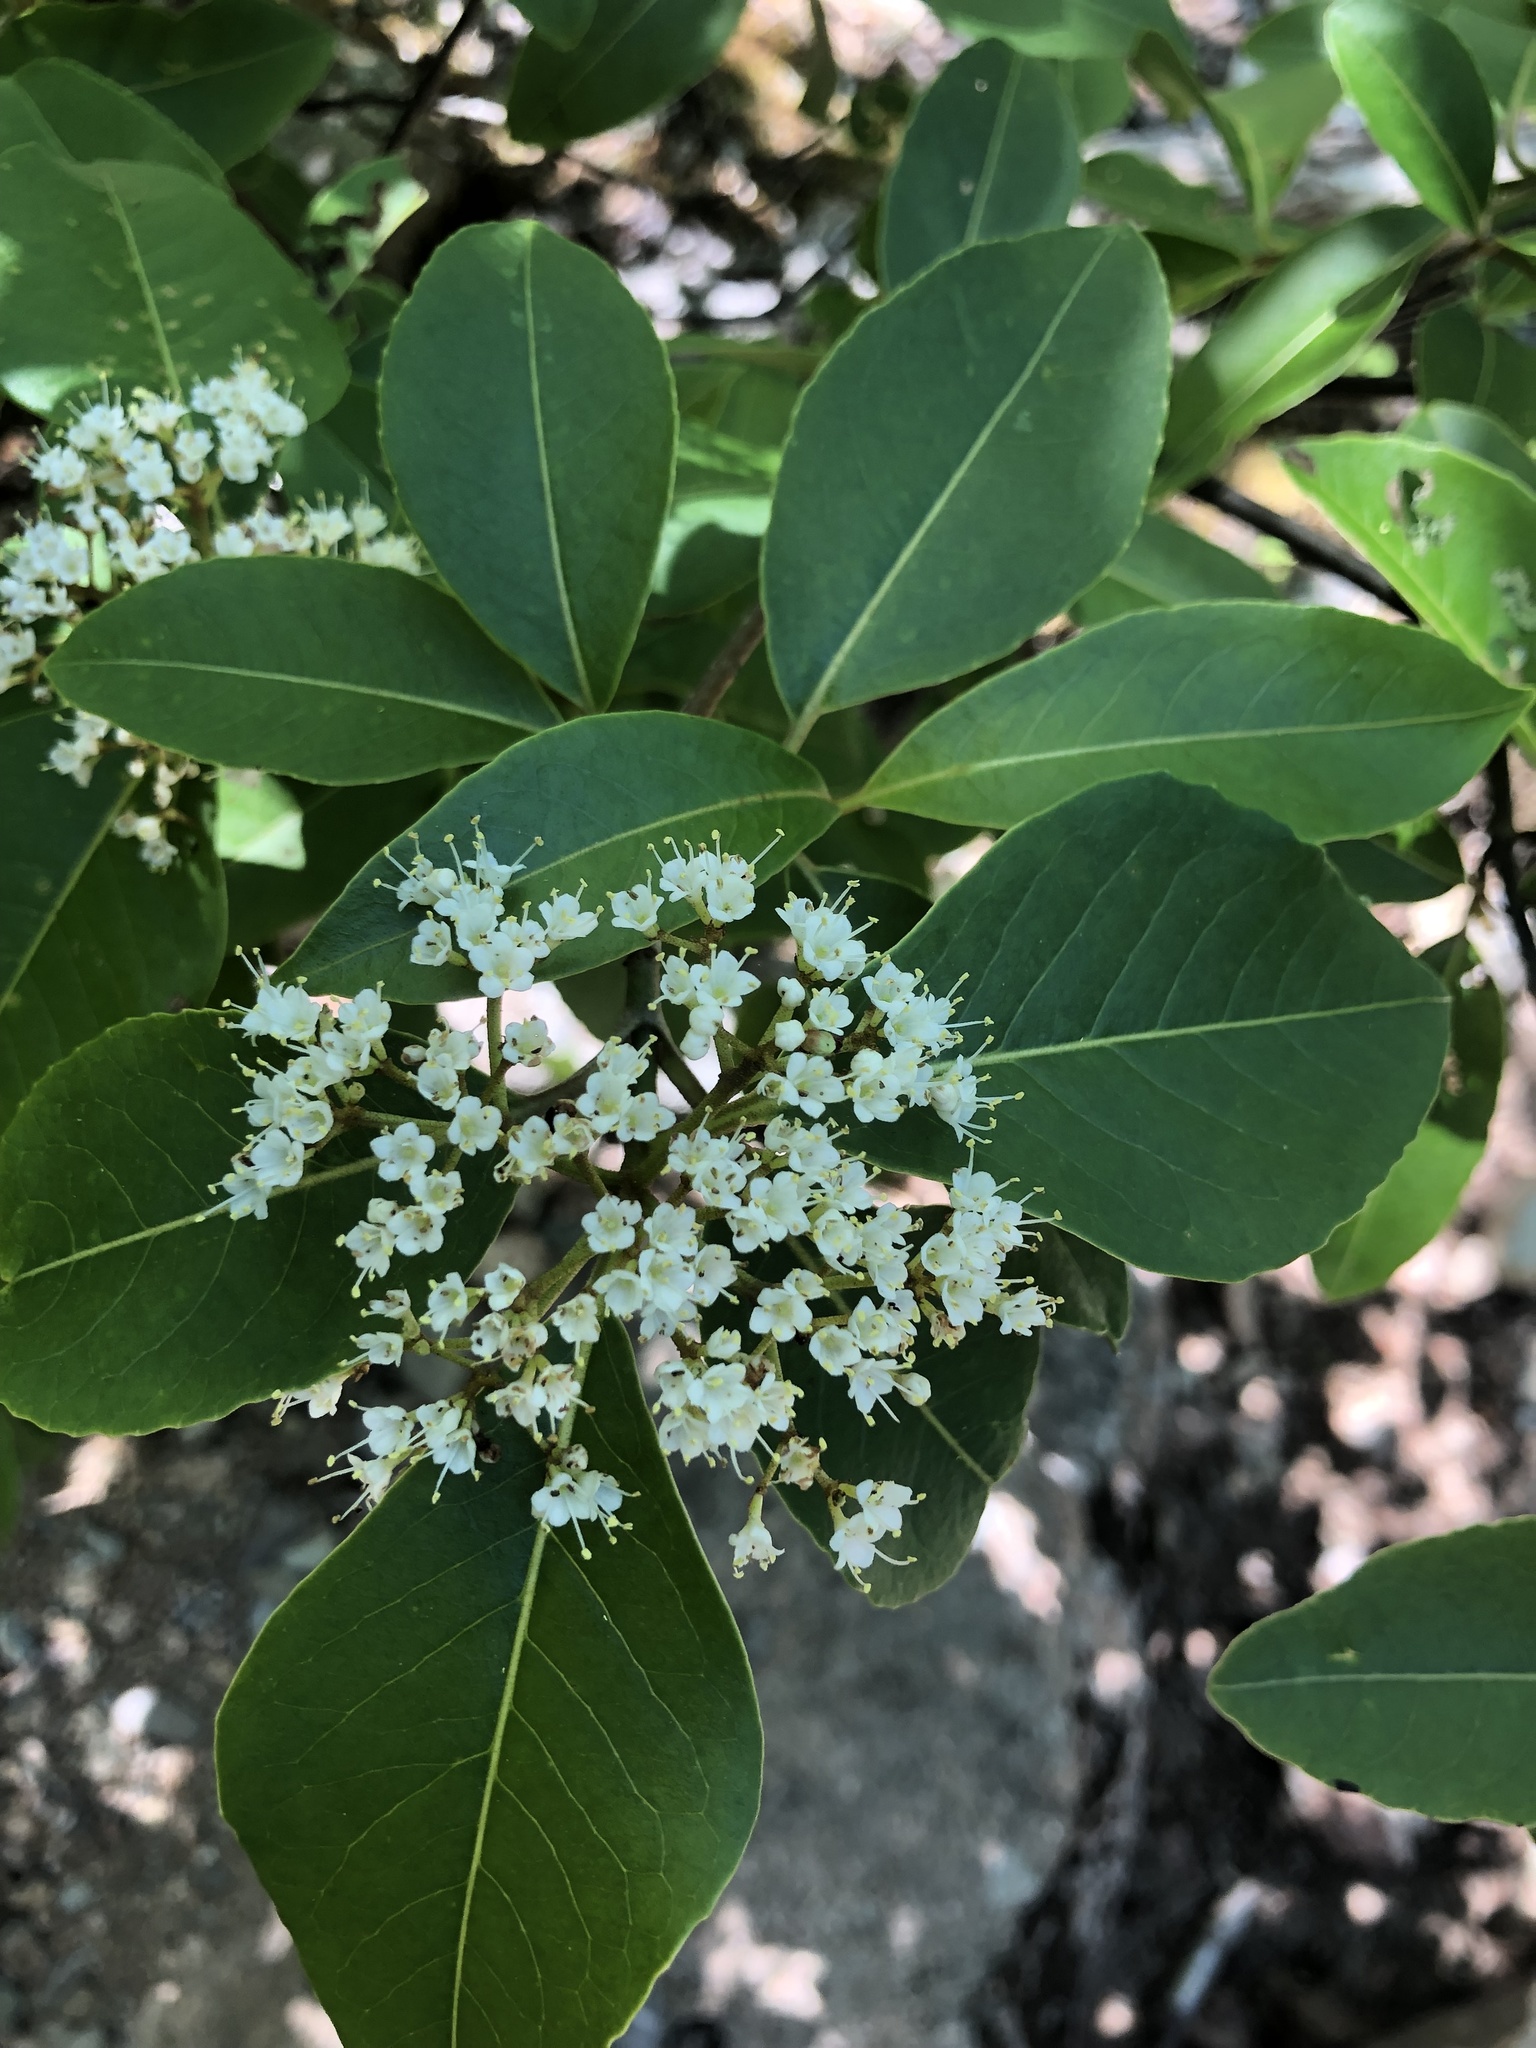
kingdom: Plantae
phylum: Tracheophyta
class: Magnoliopsida
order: Dipsacales
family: Viburnaceae
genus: Viburnum
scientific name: Viburnum cassinoides
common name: Swamp haw
